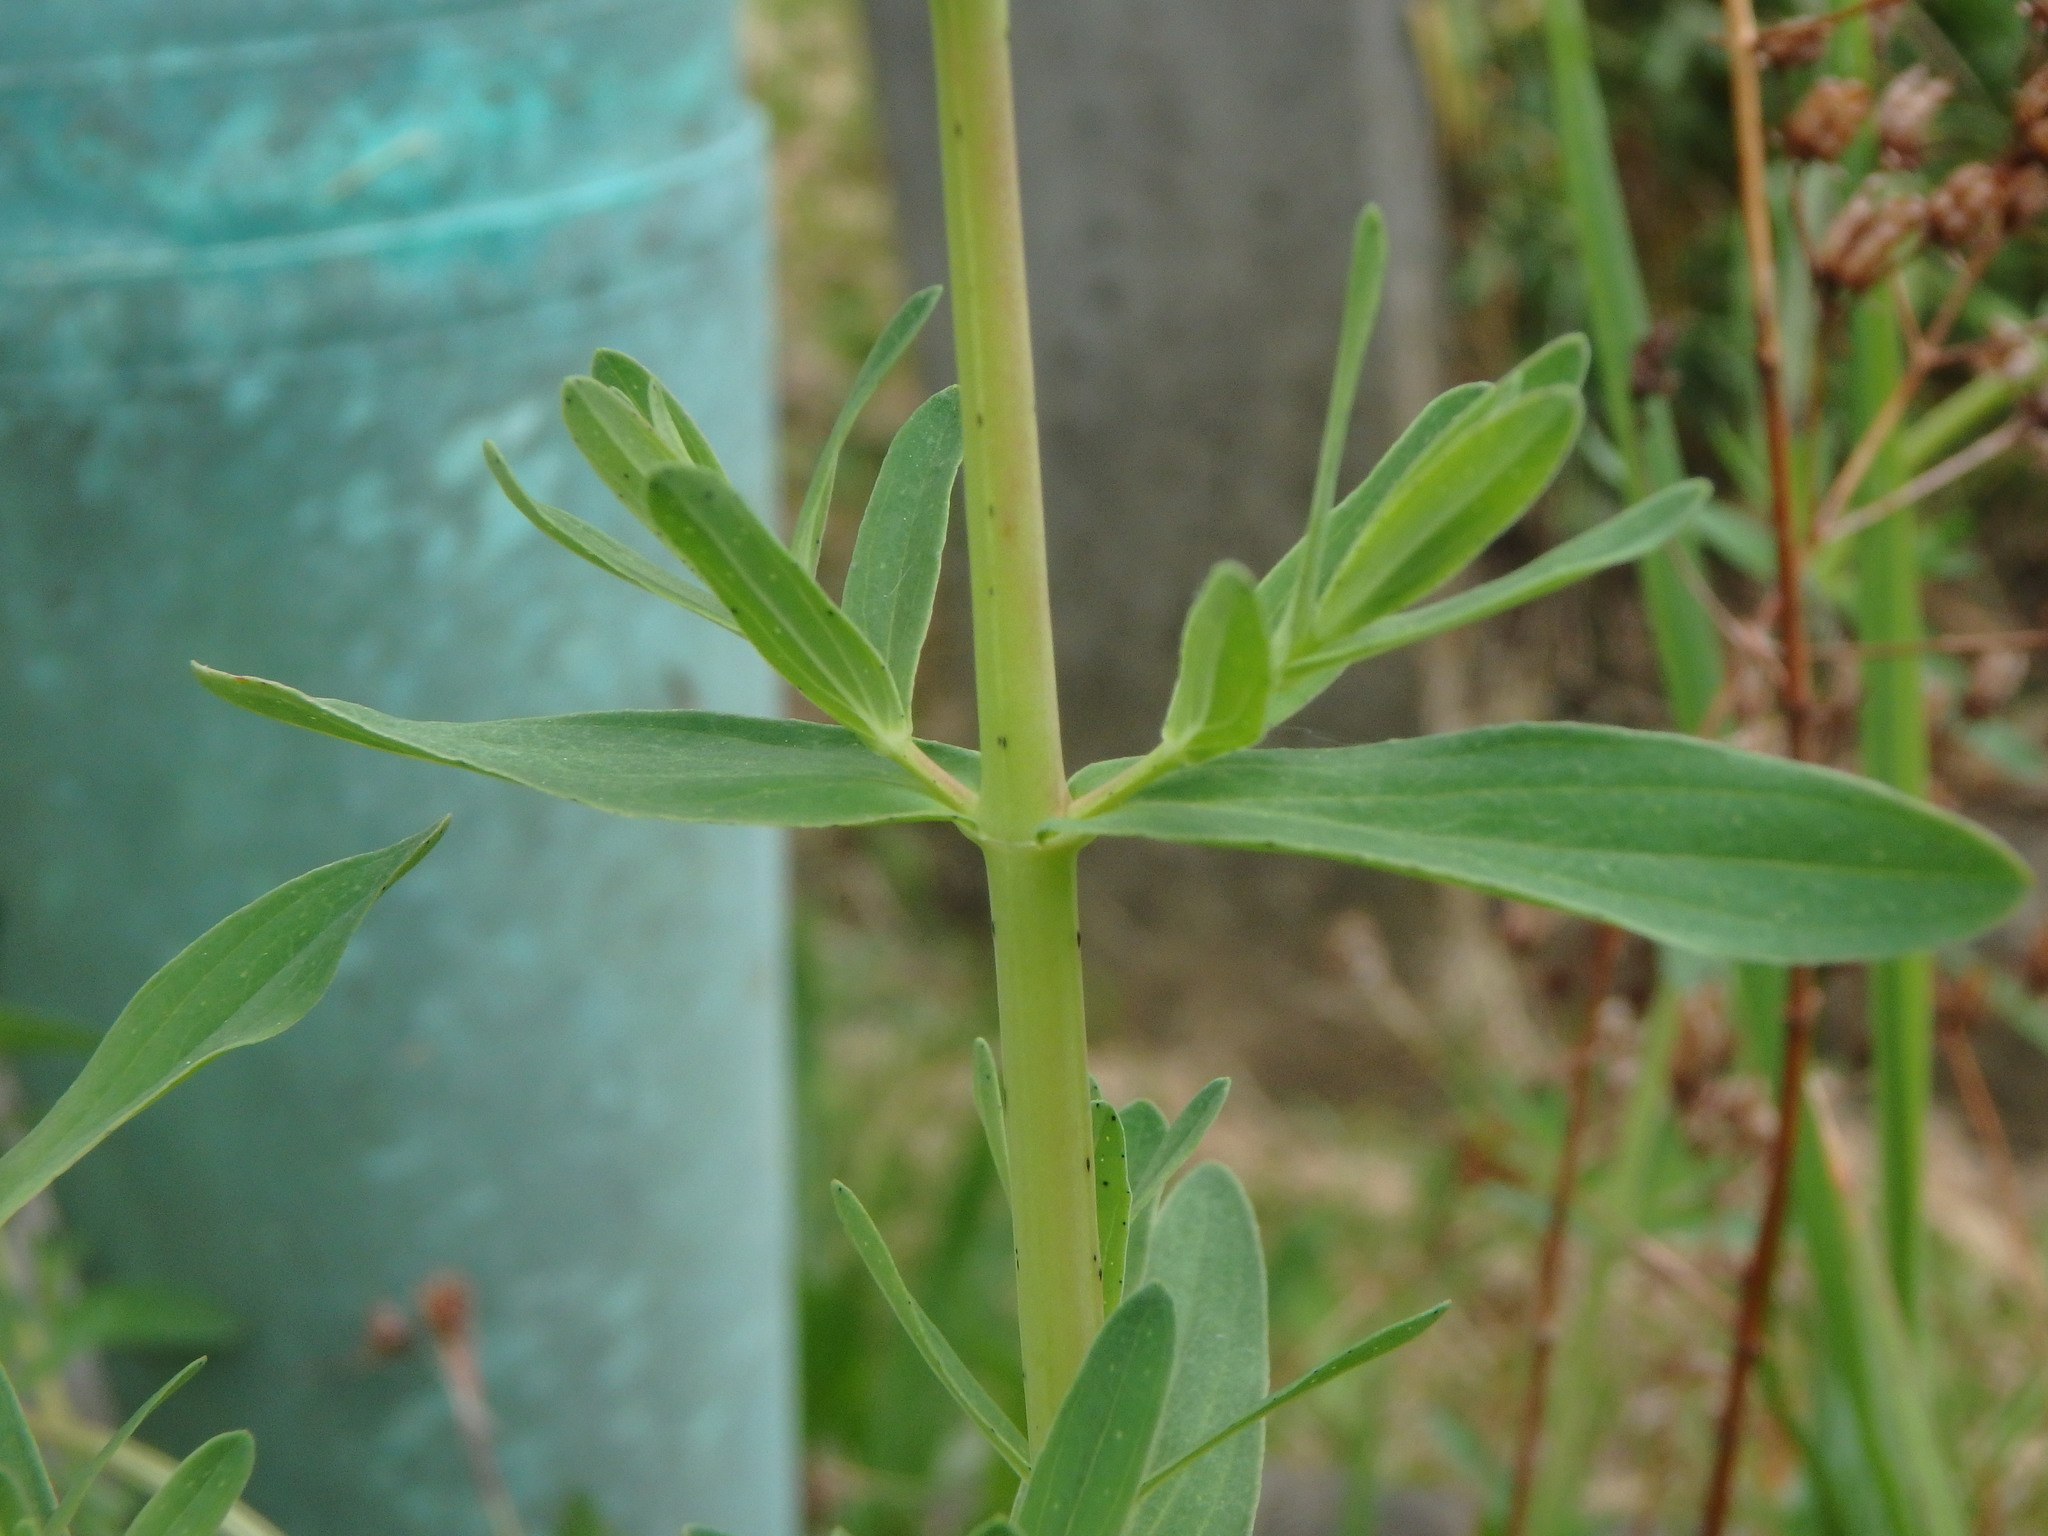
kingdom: Plantae
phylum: Tracheophyta
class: Magnoliopsida
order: Malpighiales
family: Hypericaceae
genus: Hypericum
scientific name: Hypericum perforatum
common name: Common st. johnswort
